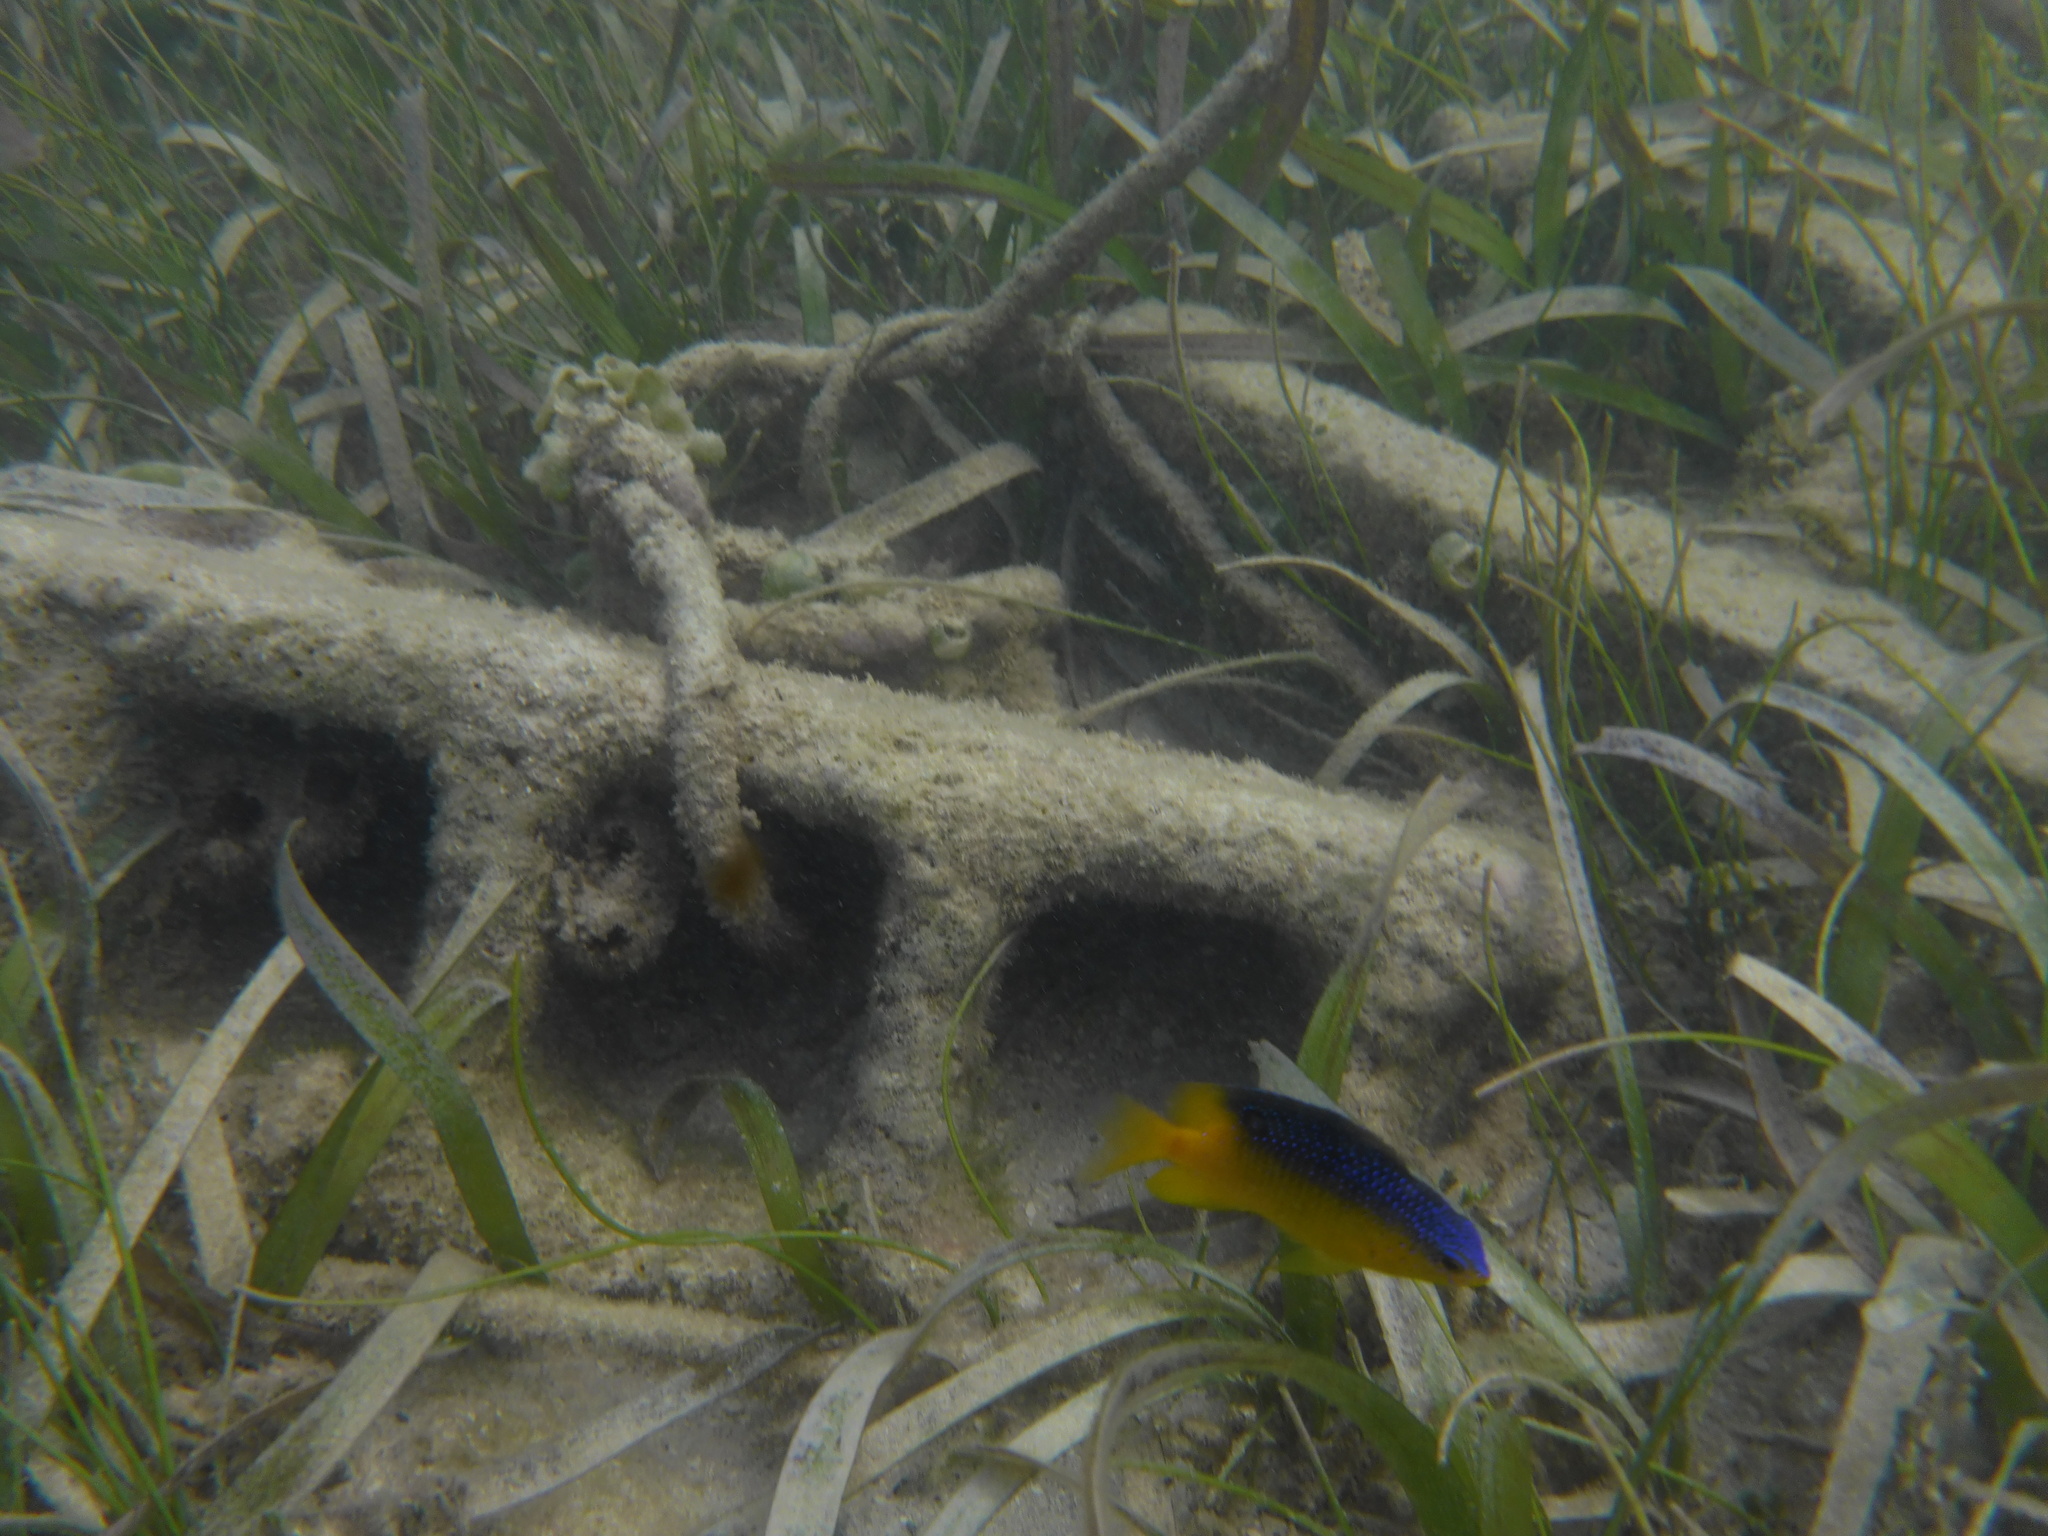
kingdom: Animalia
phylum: Chordata
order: Perciformes
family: Pomacentridae
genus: Stegastes
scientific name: Stegastes leucostictus
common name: Beaugregory
